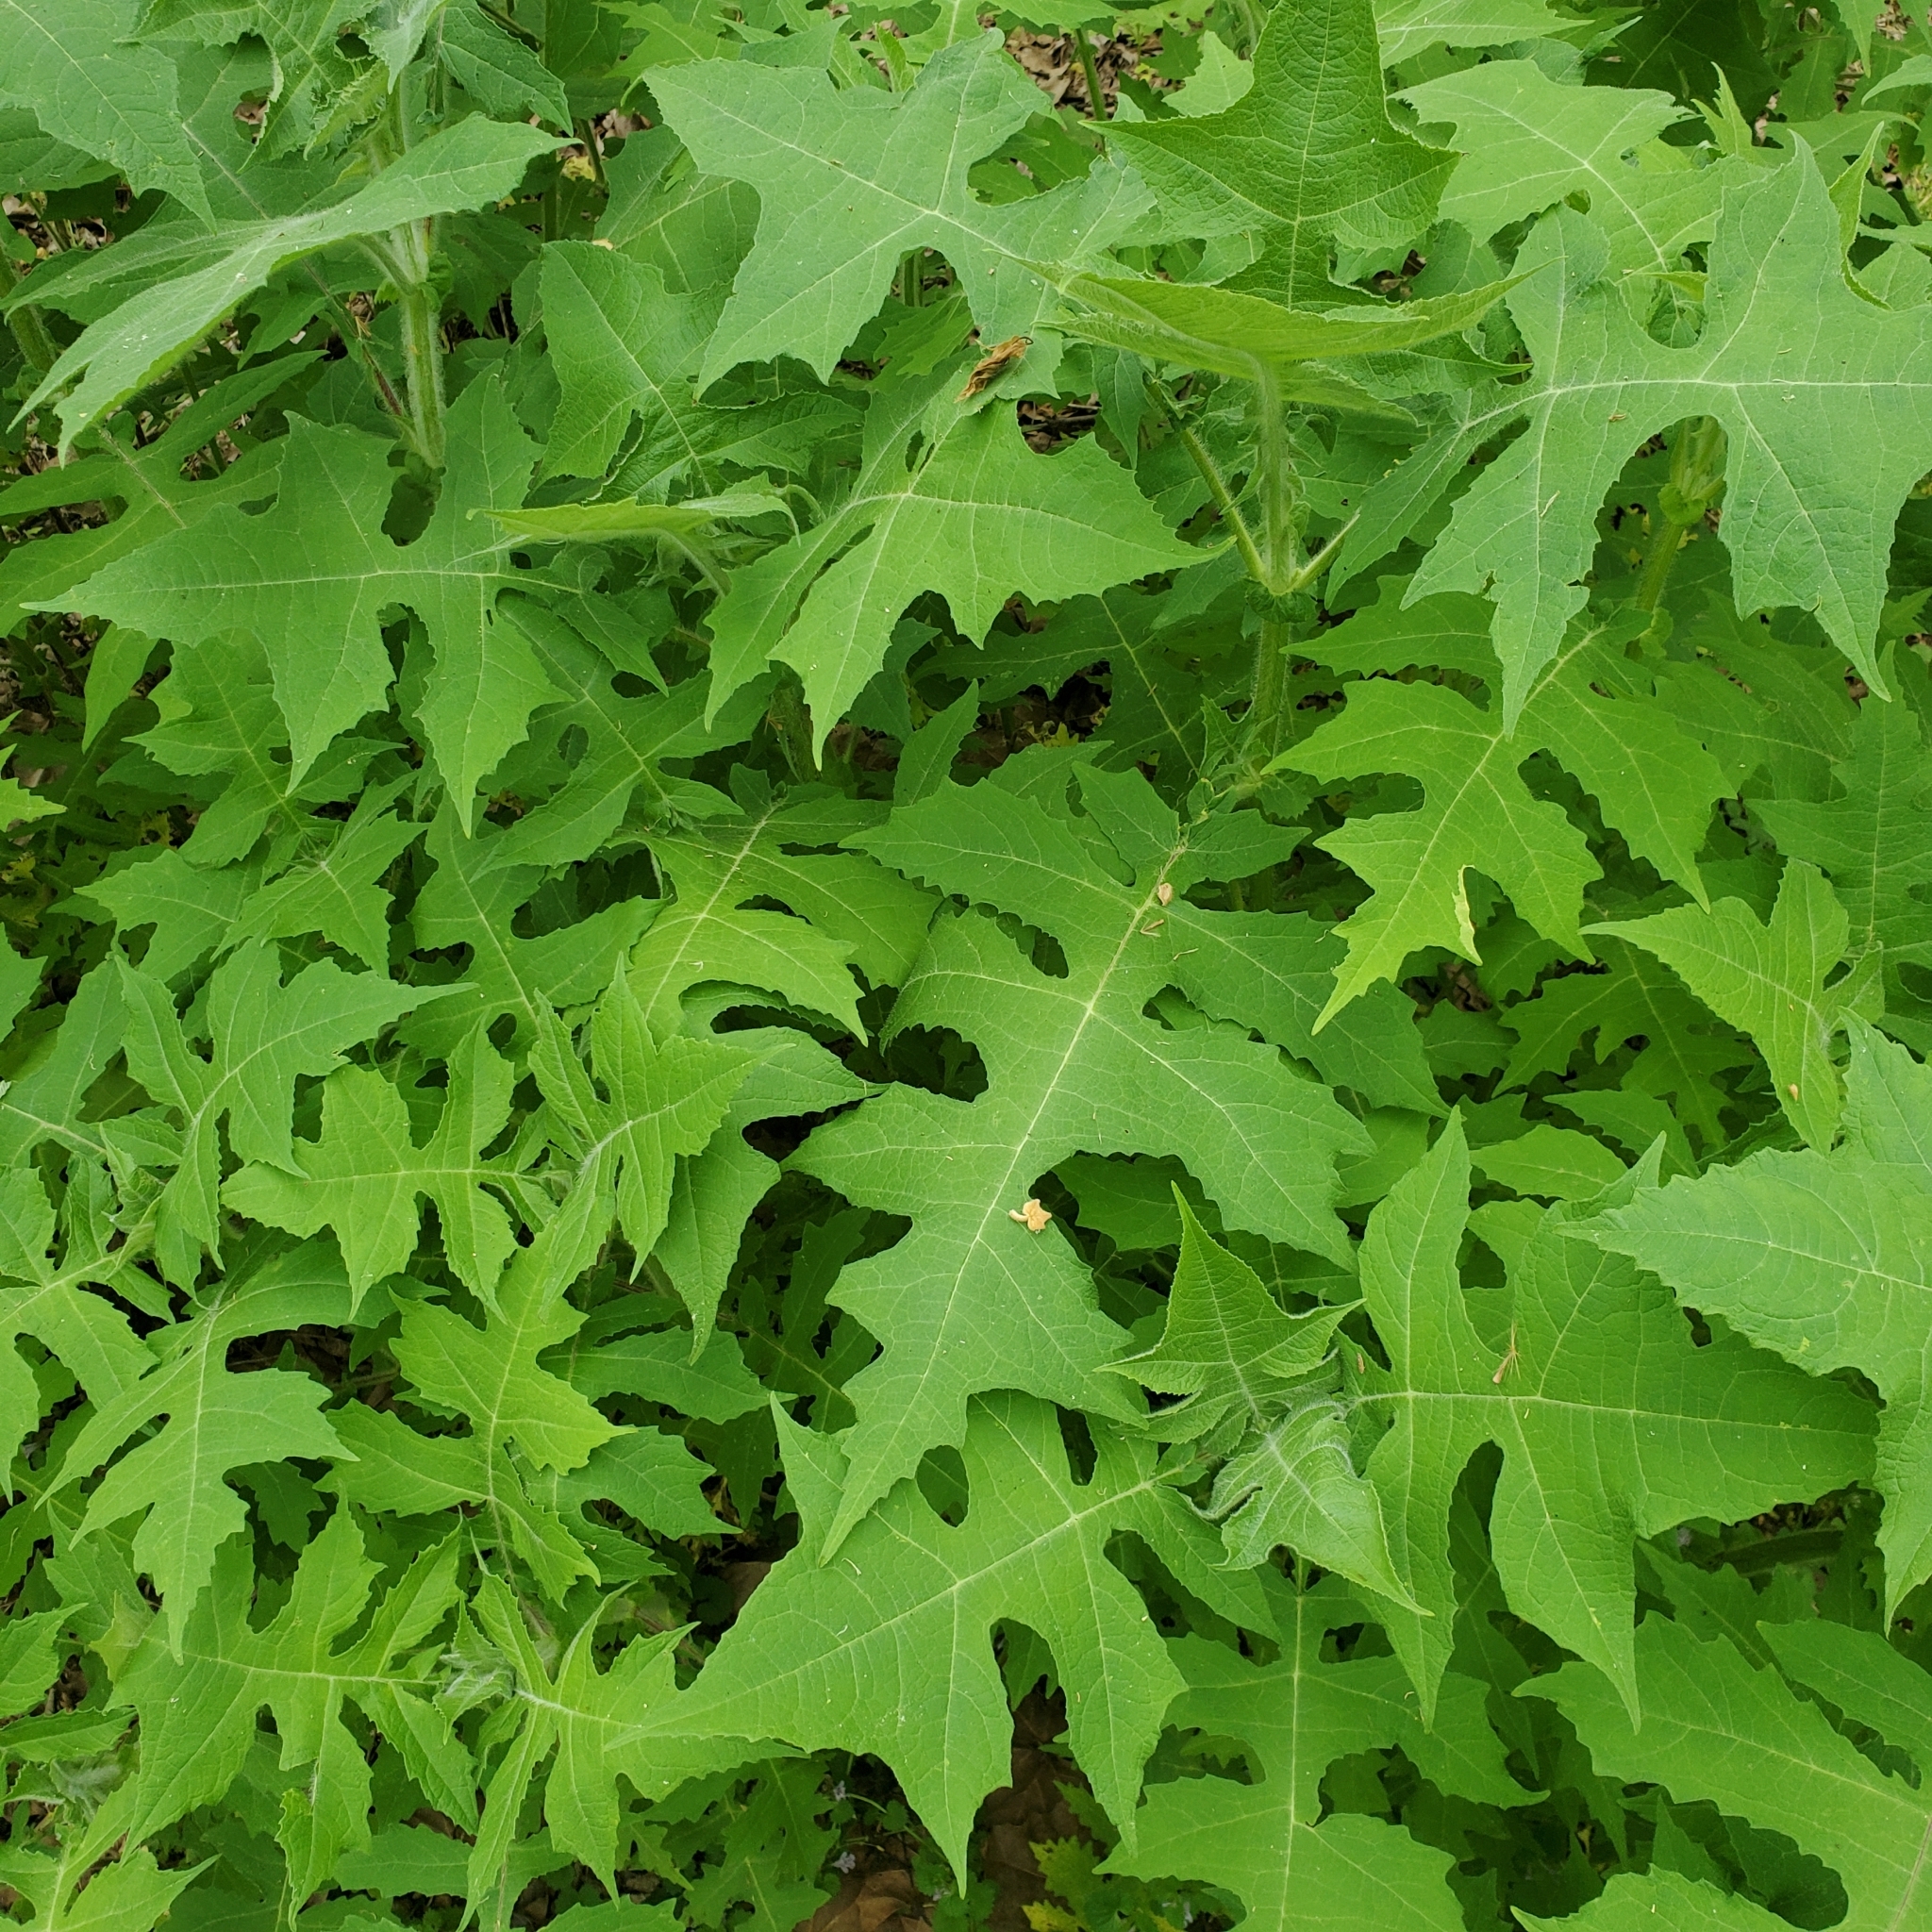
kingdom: Plantae
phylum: Tracheophyta
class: Magnoliopsida
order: Asterales
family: Asteraceae
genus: Polymnia
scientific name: Polymnia canadensis
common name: Pale-flowered leafcup
